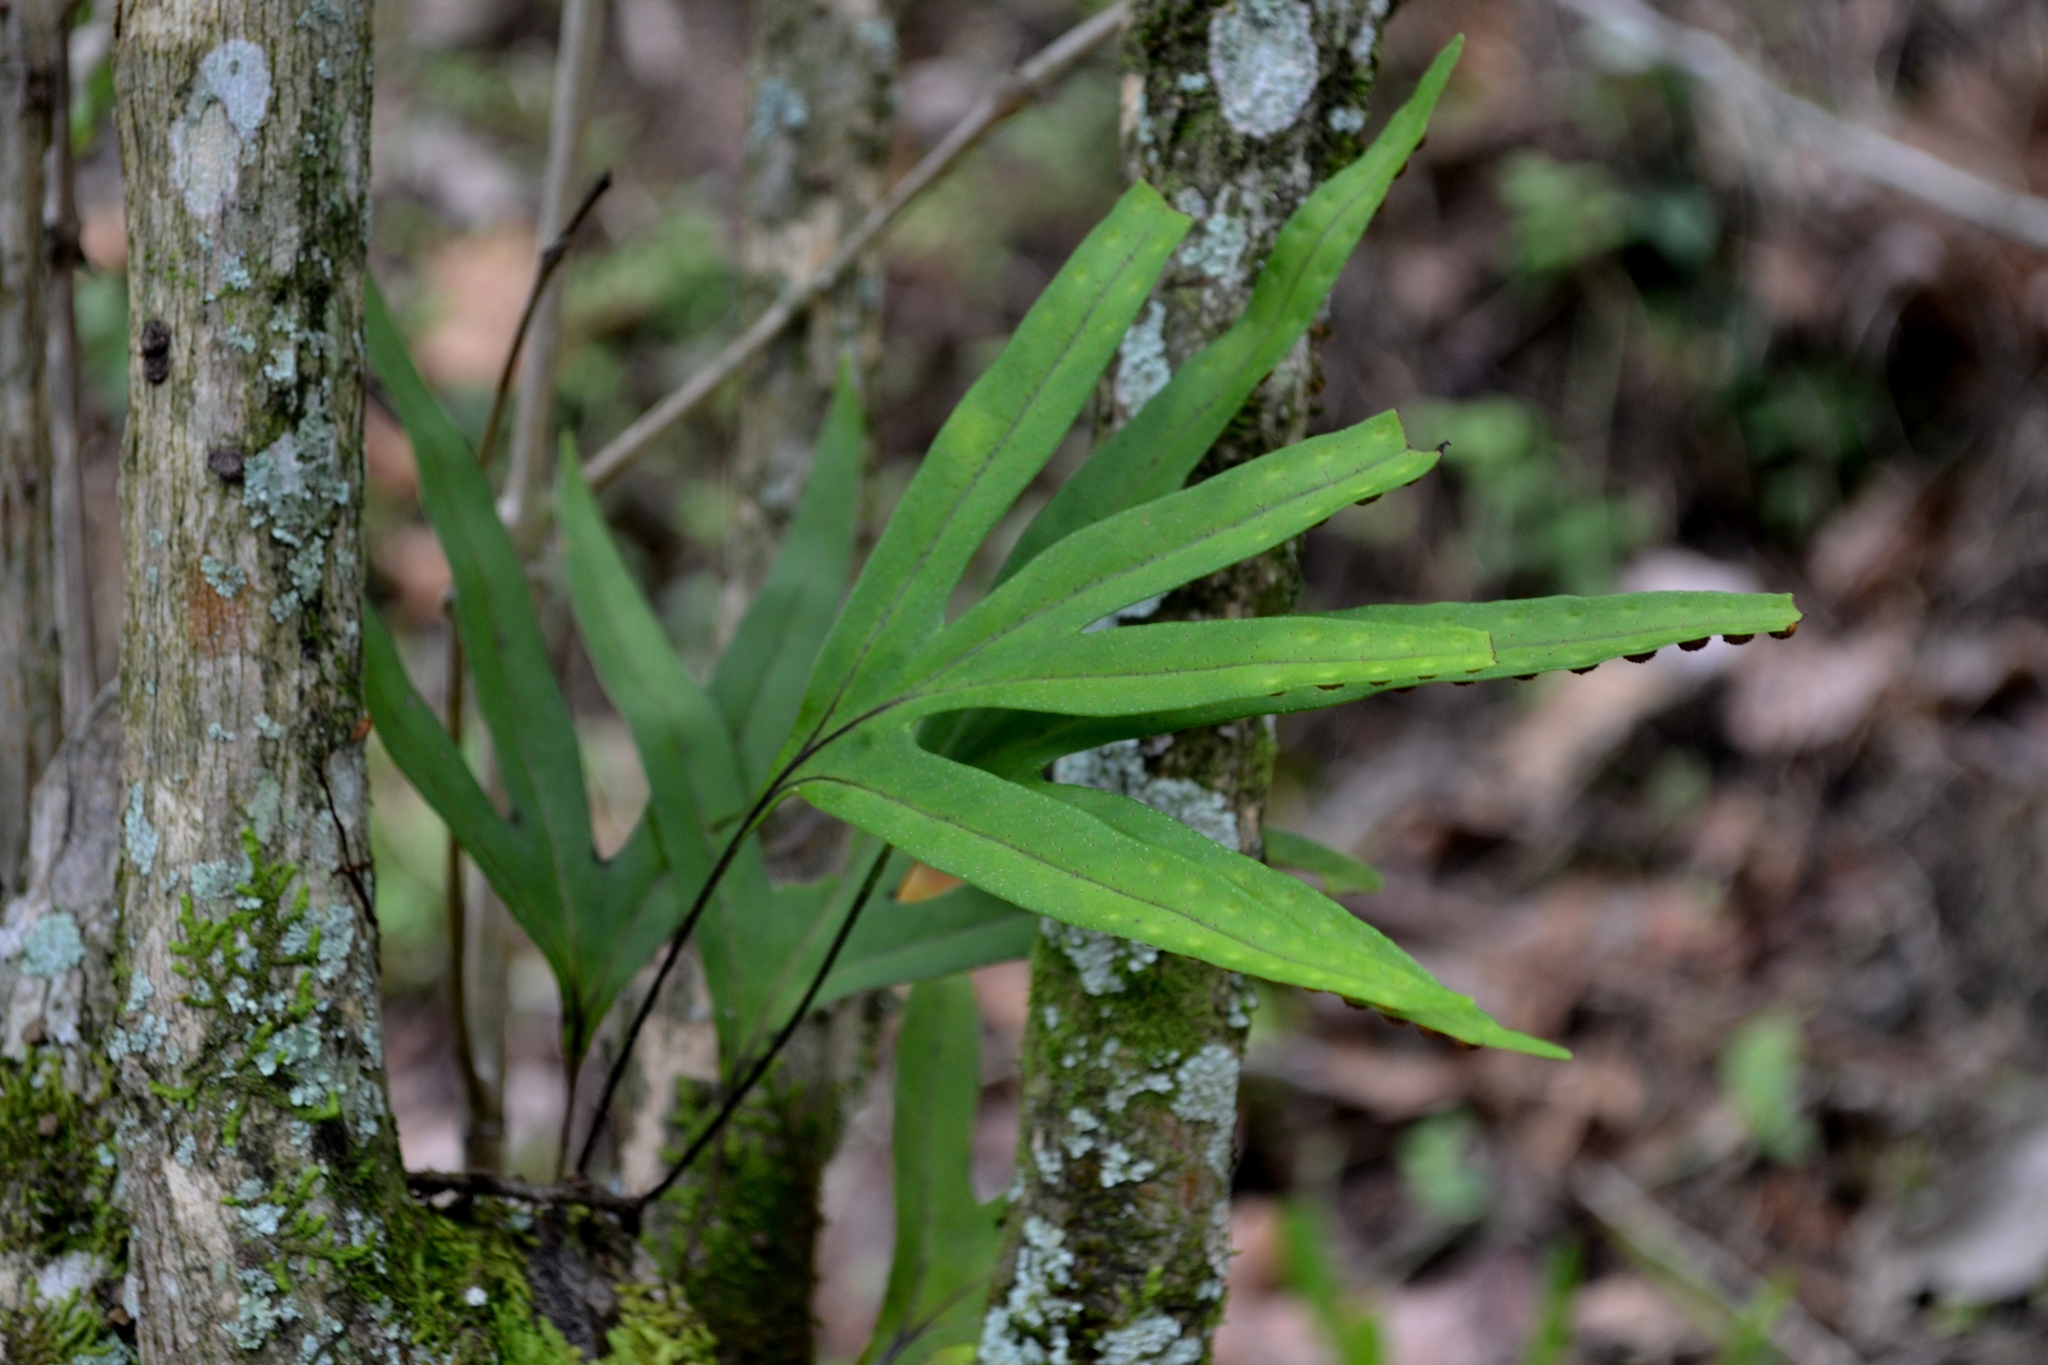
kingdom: Plantae
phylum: Tracheophyta
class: Polypodiopsida
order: Polypodiales
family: Polypodiaceae
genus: Pleopeltis
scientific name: Pleopeltis angusta
